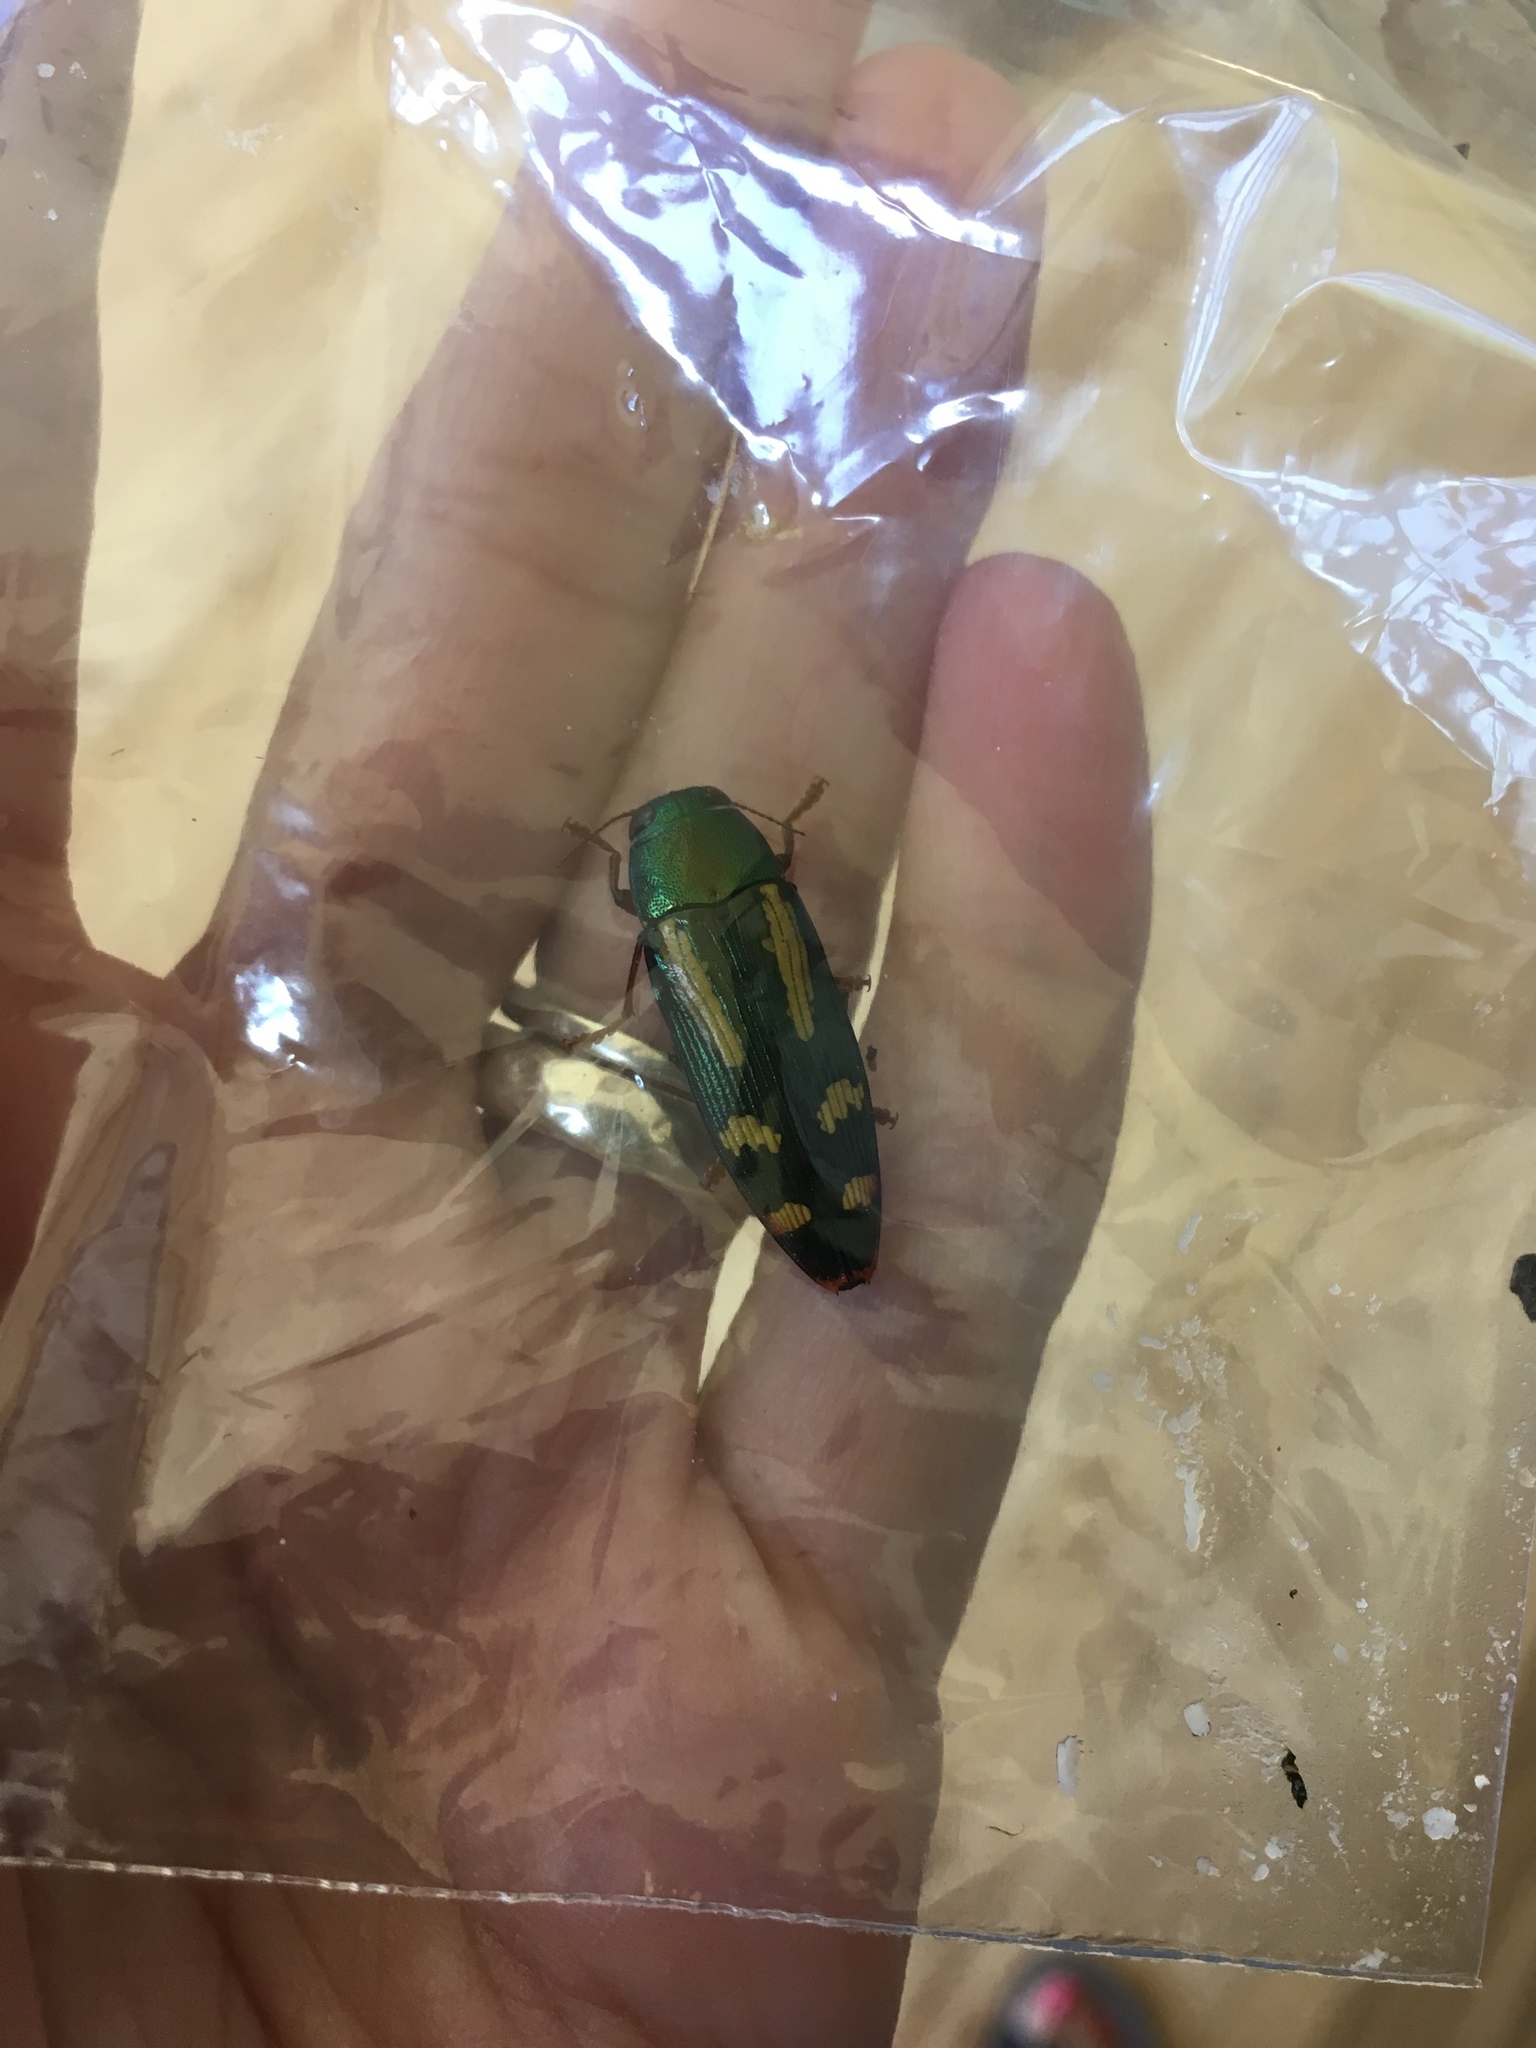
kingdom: Animalia
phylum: Arthropoda
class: Insecta
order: Coleoptera
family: Buprestidae
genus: Buprestis
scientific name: Buprestis rufipes
